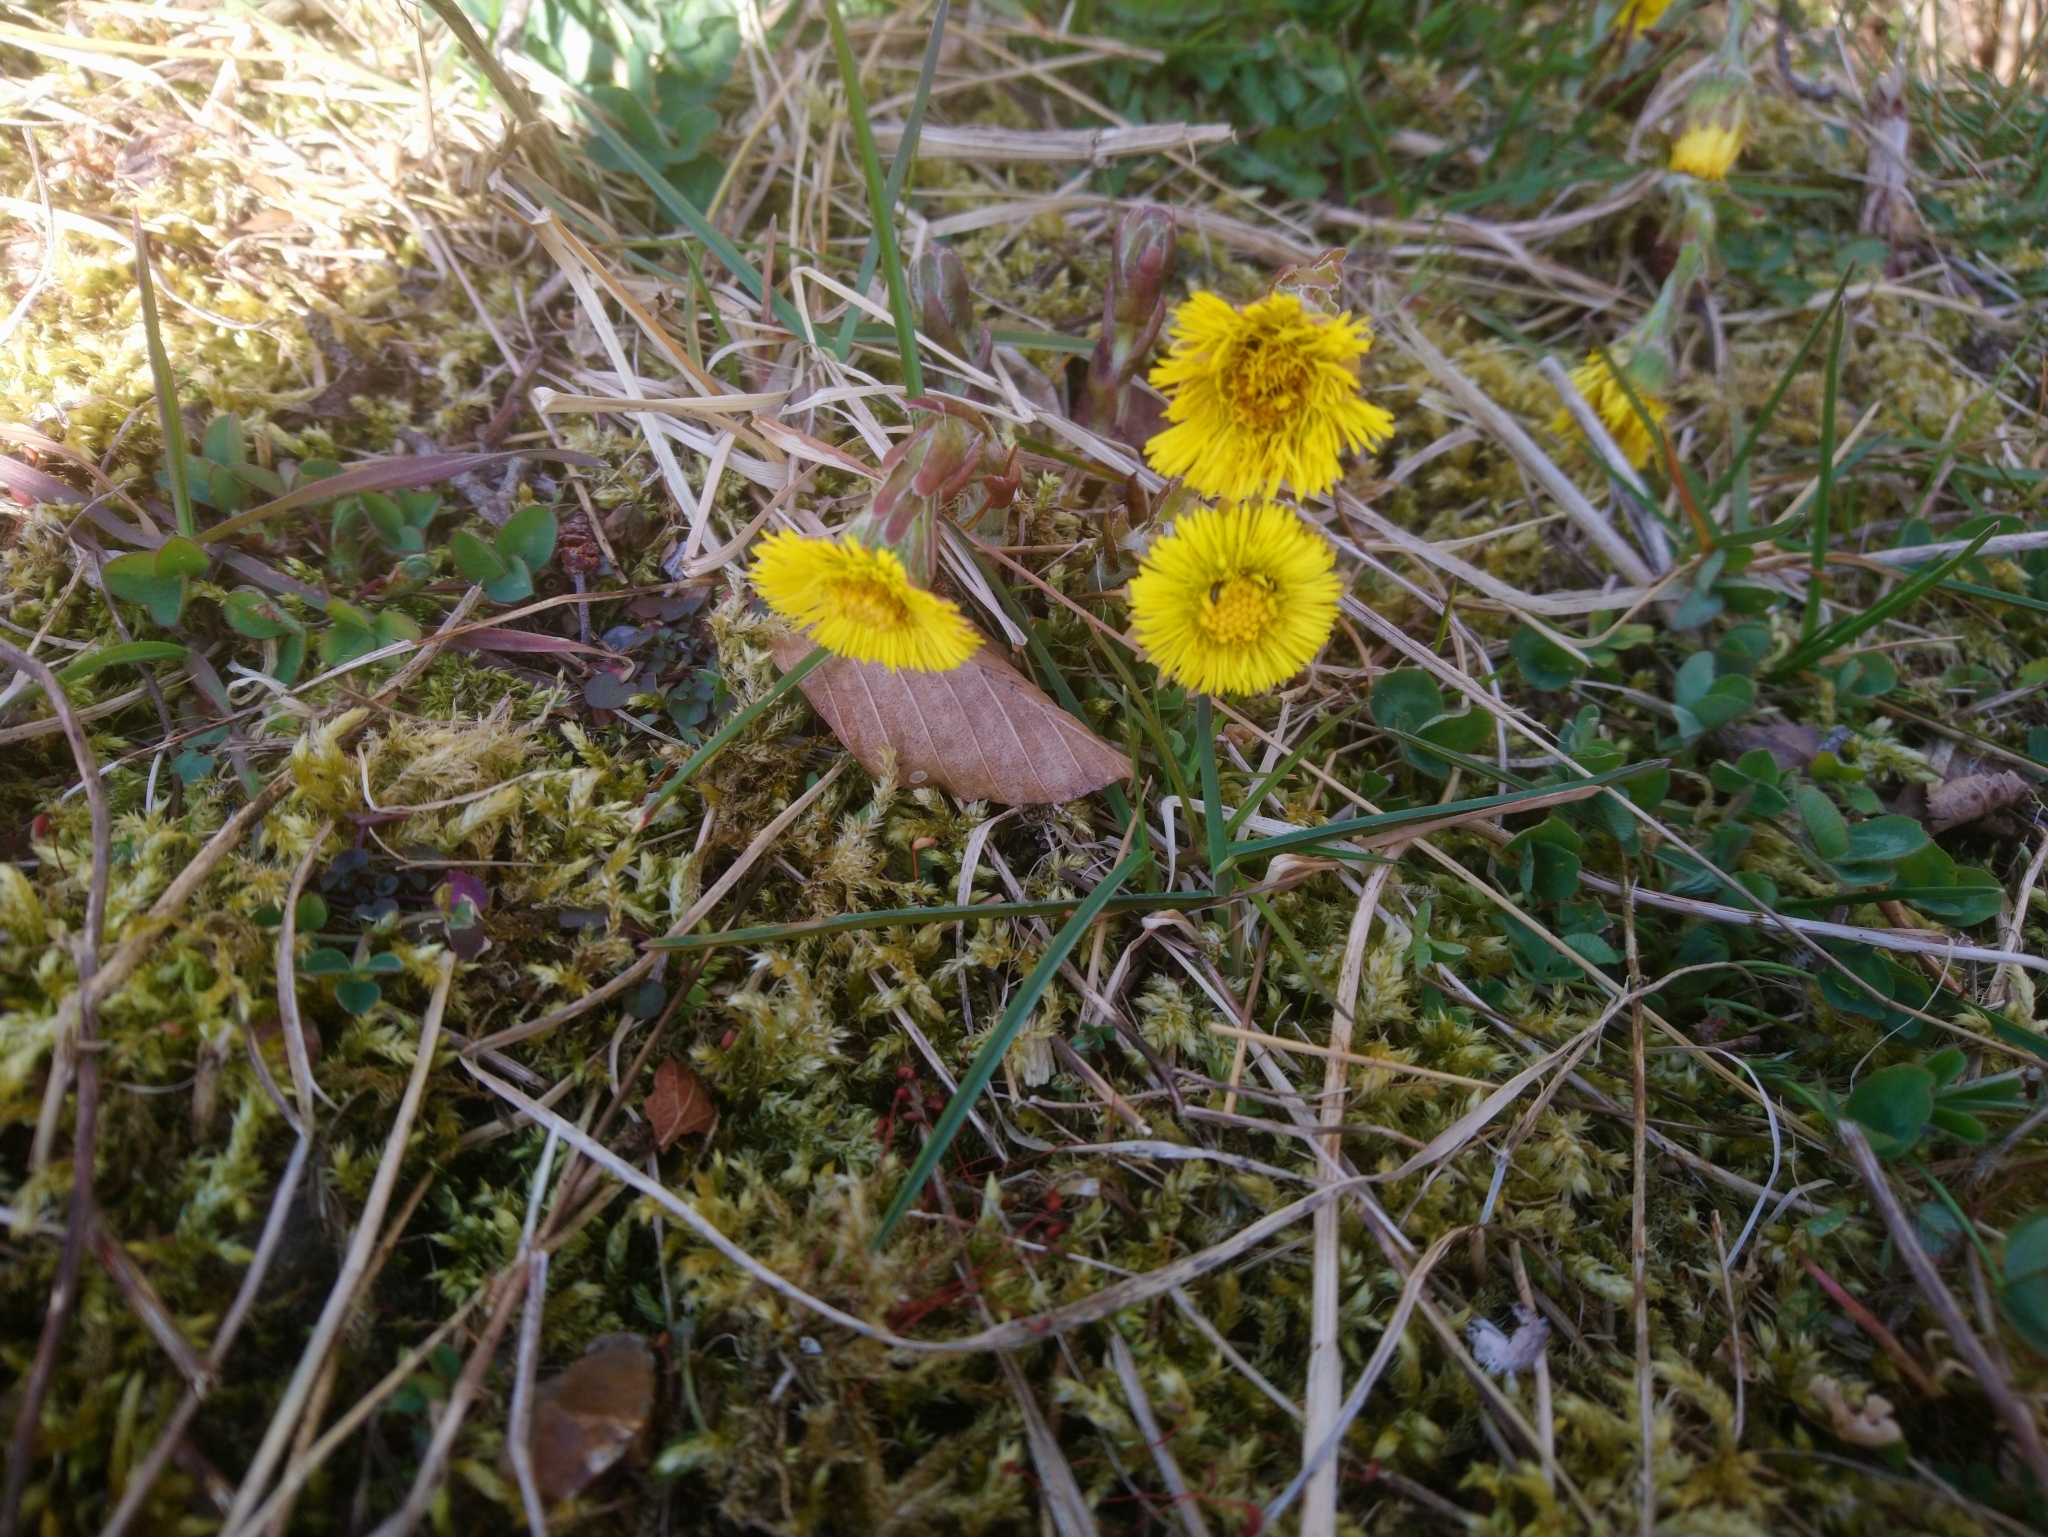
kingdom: Plantae
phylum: Tracheophyta
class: Magnoliopsida
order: Asterales
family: Asteraceae
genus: Tussilago
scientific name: Tussilago farfara
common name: Coltsfoot
